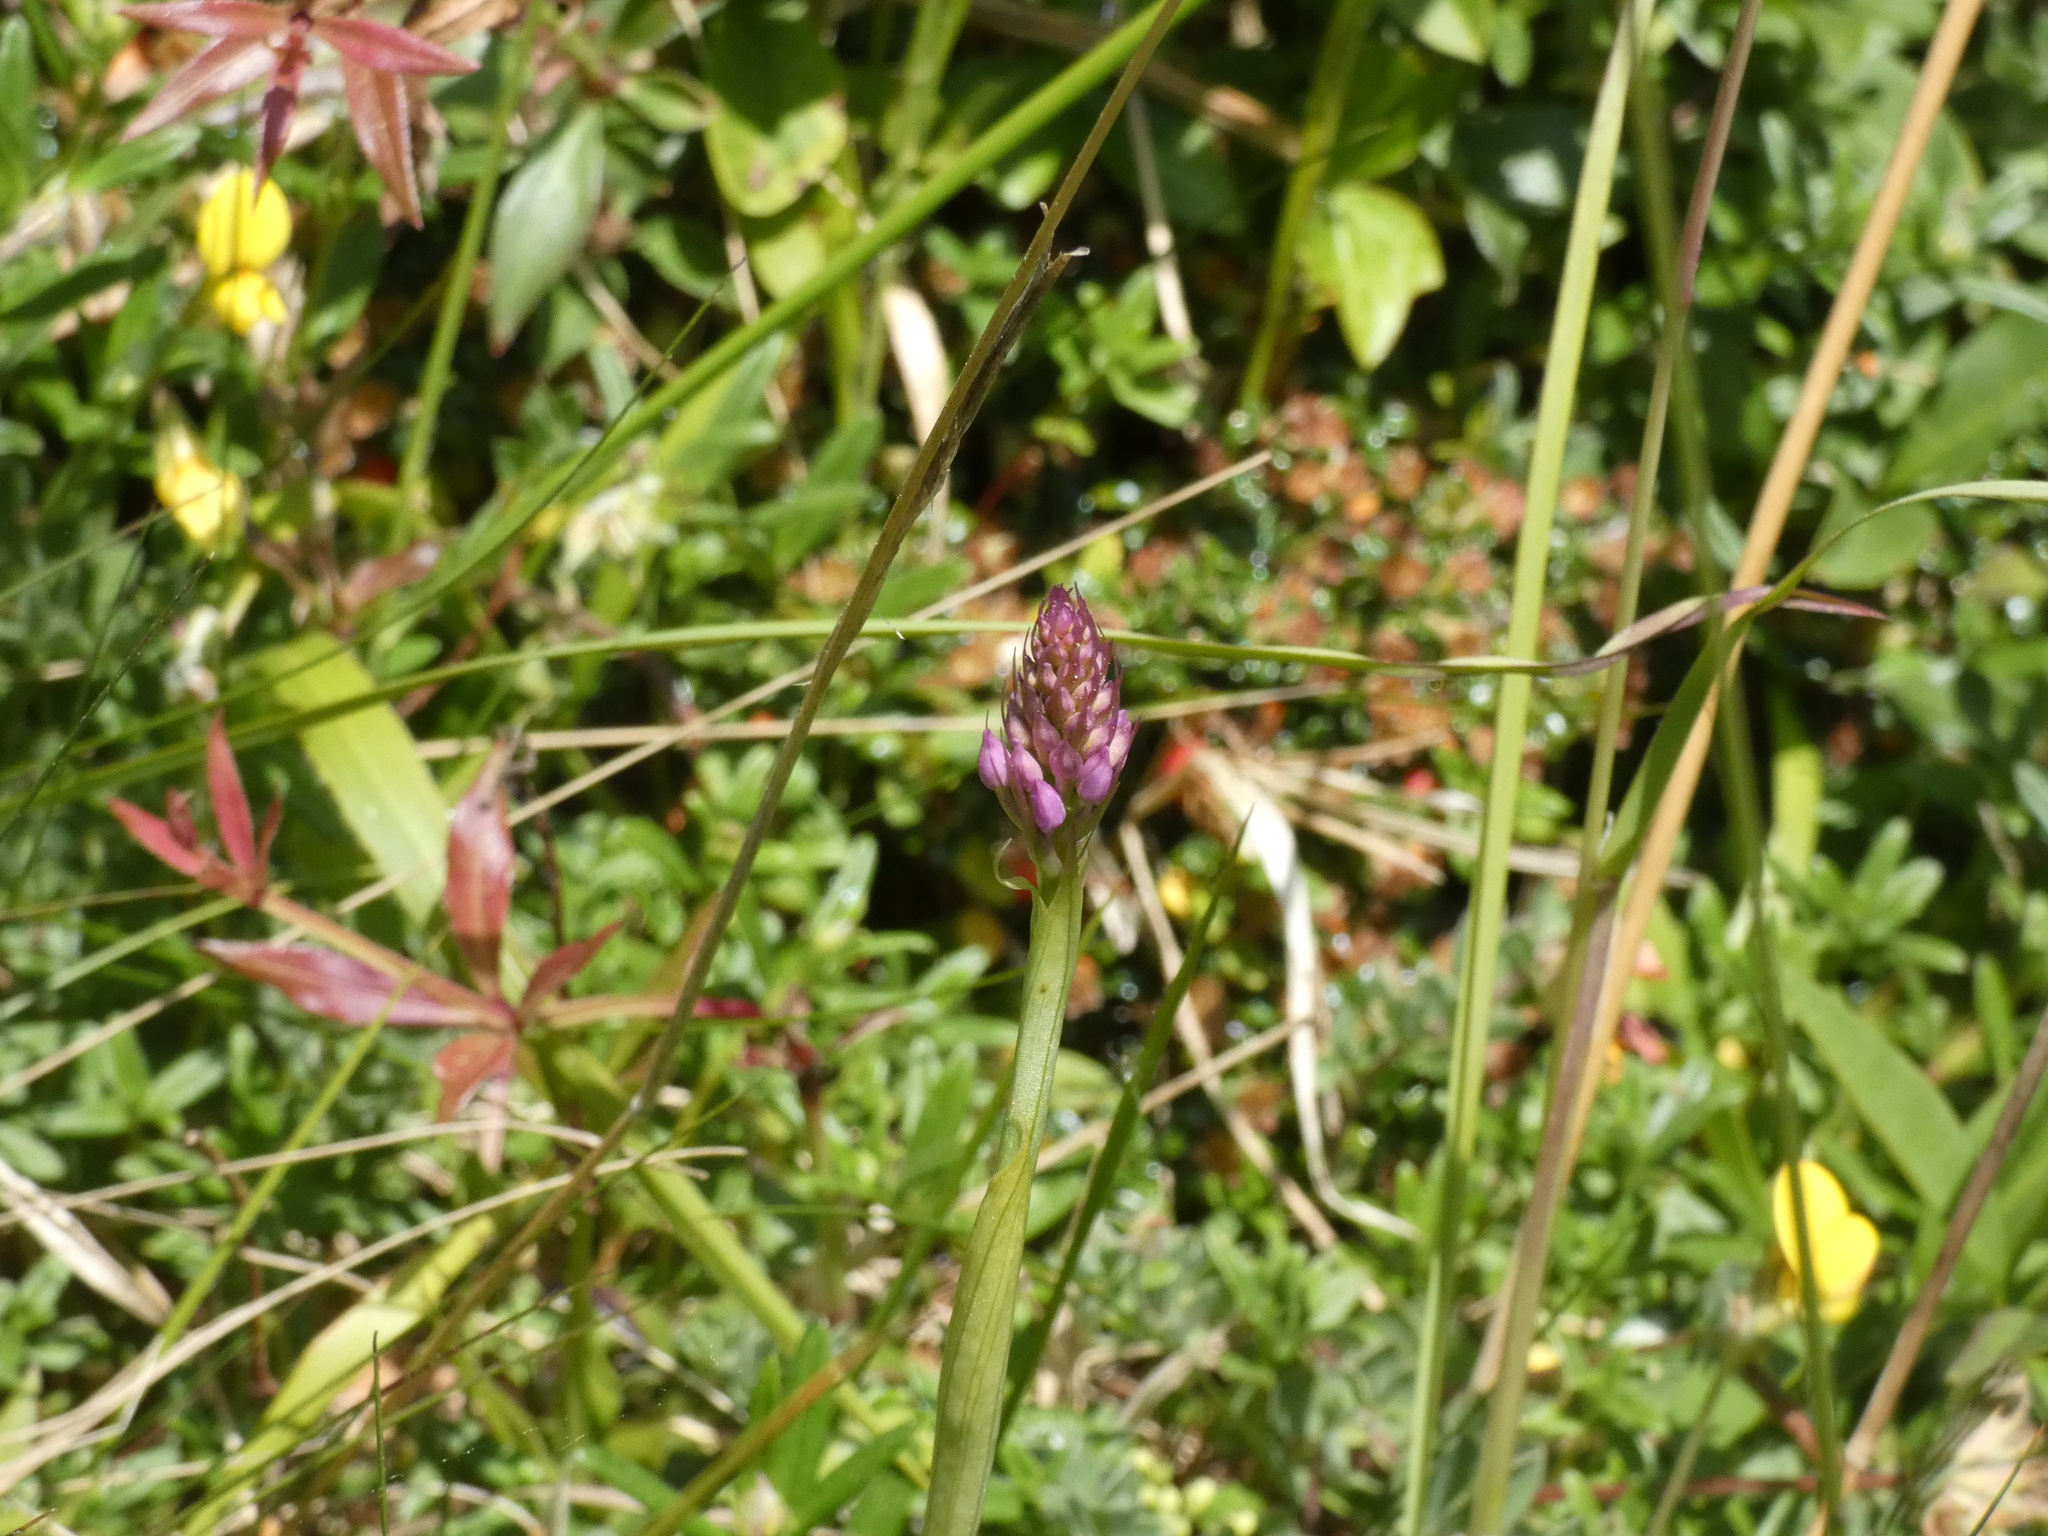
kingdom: Plantae
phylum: Tracheophyta
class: Liliopsida
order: Asparagales
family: Orchidaceae
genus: Anacamptis
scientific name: Anacamptis pyramidalis
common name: Pyramidal orchid
